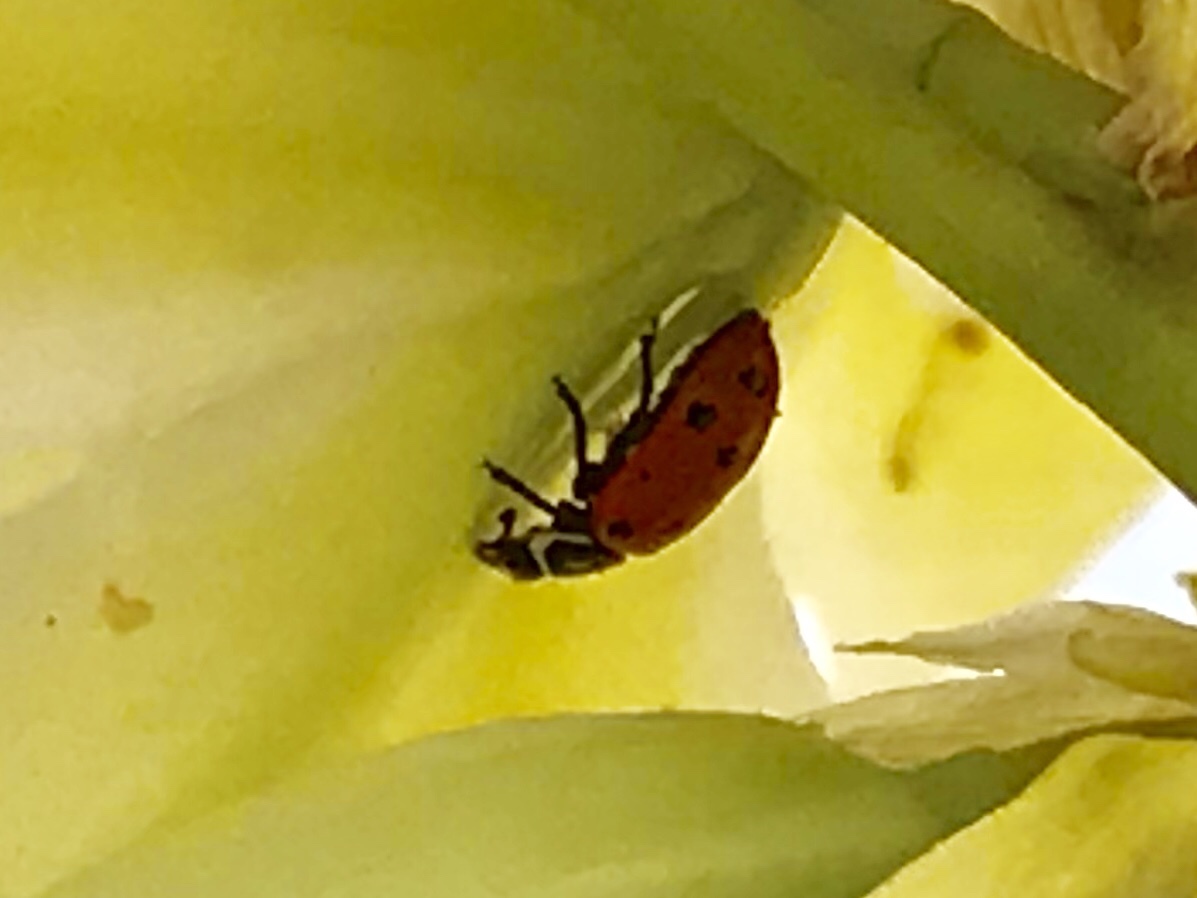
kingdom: Animalia
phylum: Arthropoda
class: Insecta
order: Coleoptera
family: Coccinellidae
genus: Hippodamia
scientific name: Hippodamia convergens
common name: Convergent lady beetle
